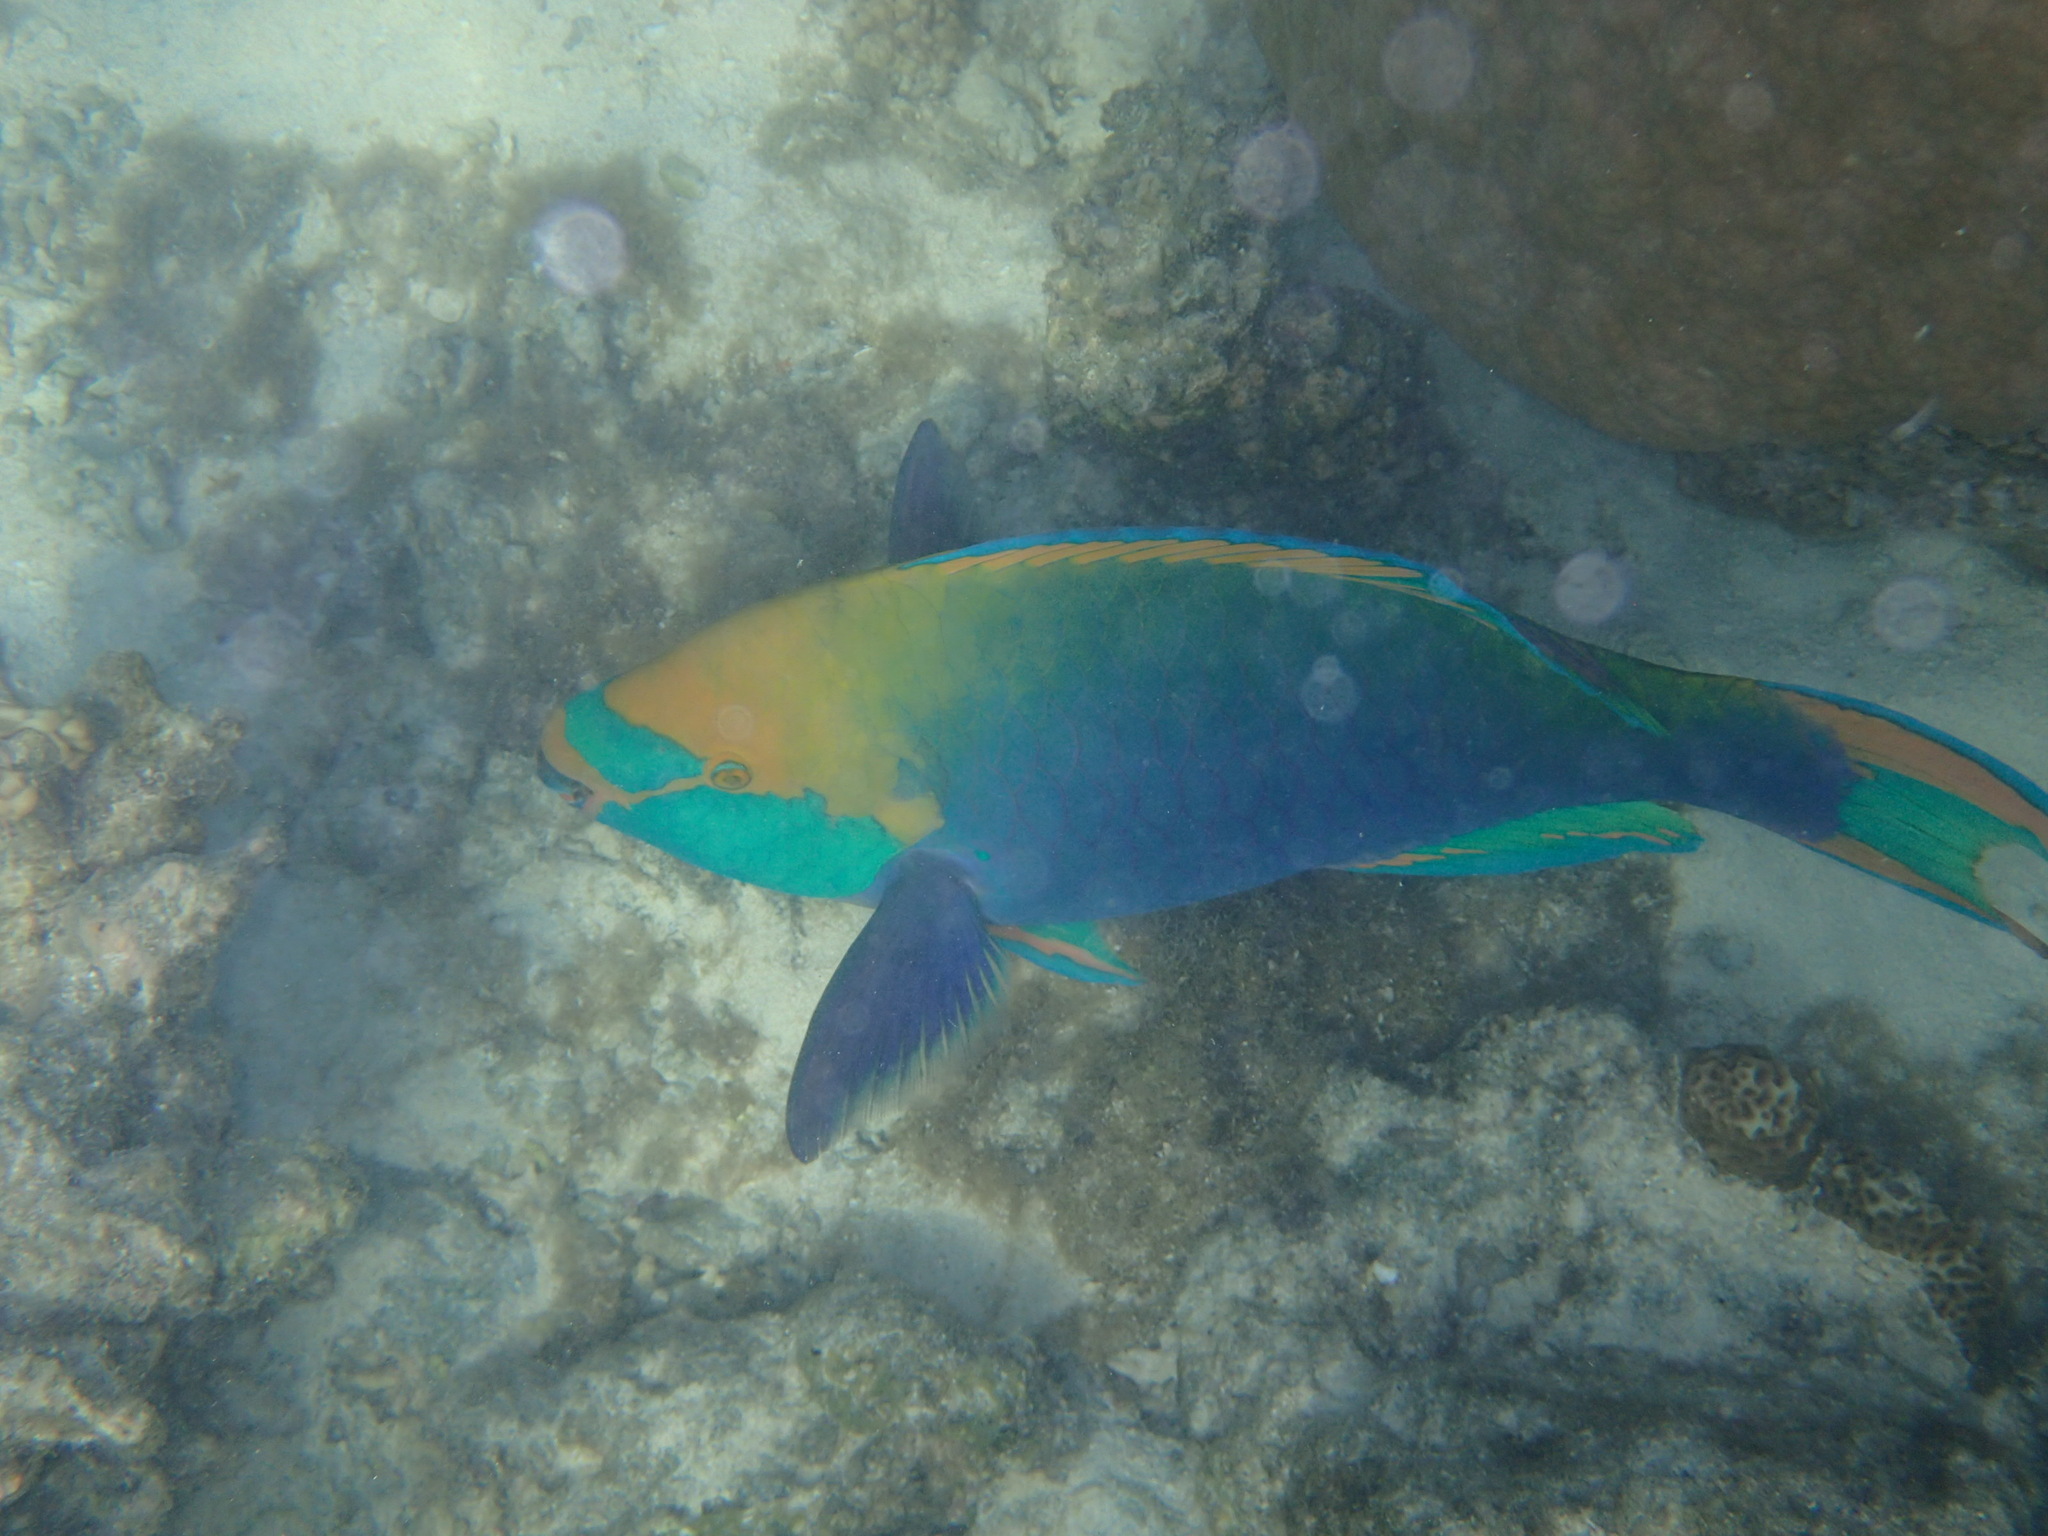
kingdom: Animalia
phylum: Chordata
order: Perciformes
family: Scaridae
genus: Scarus
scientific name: Scarus prasiognathos
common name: Singapore parrotfish
